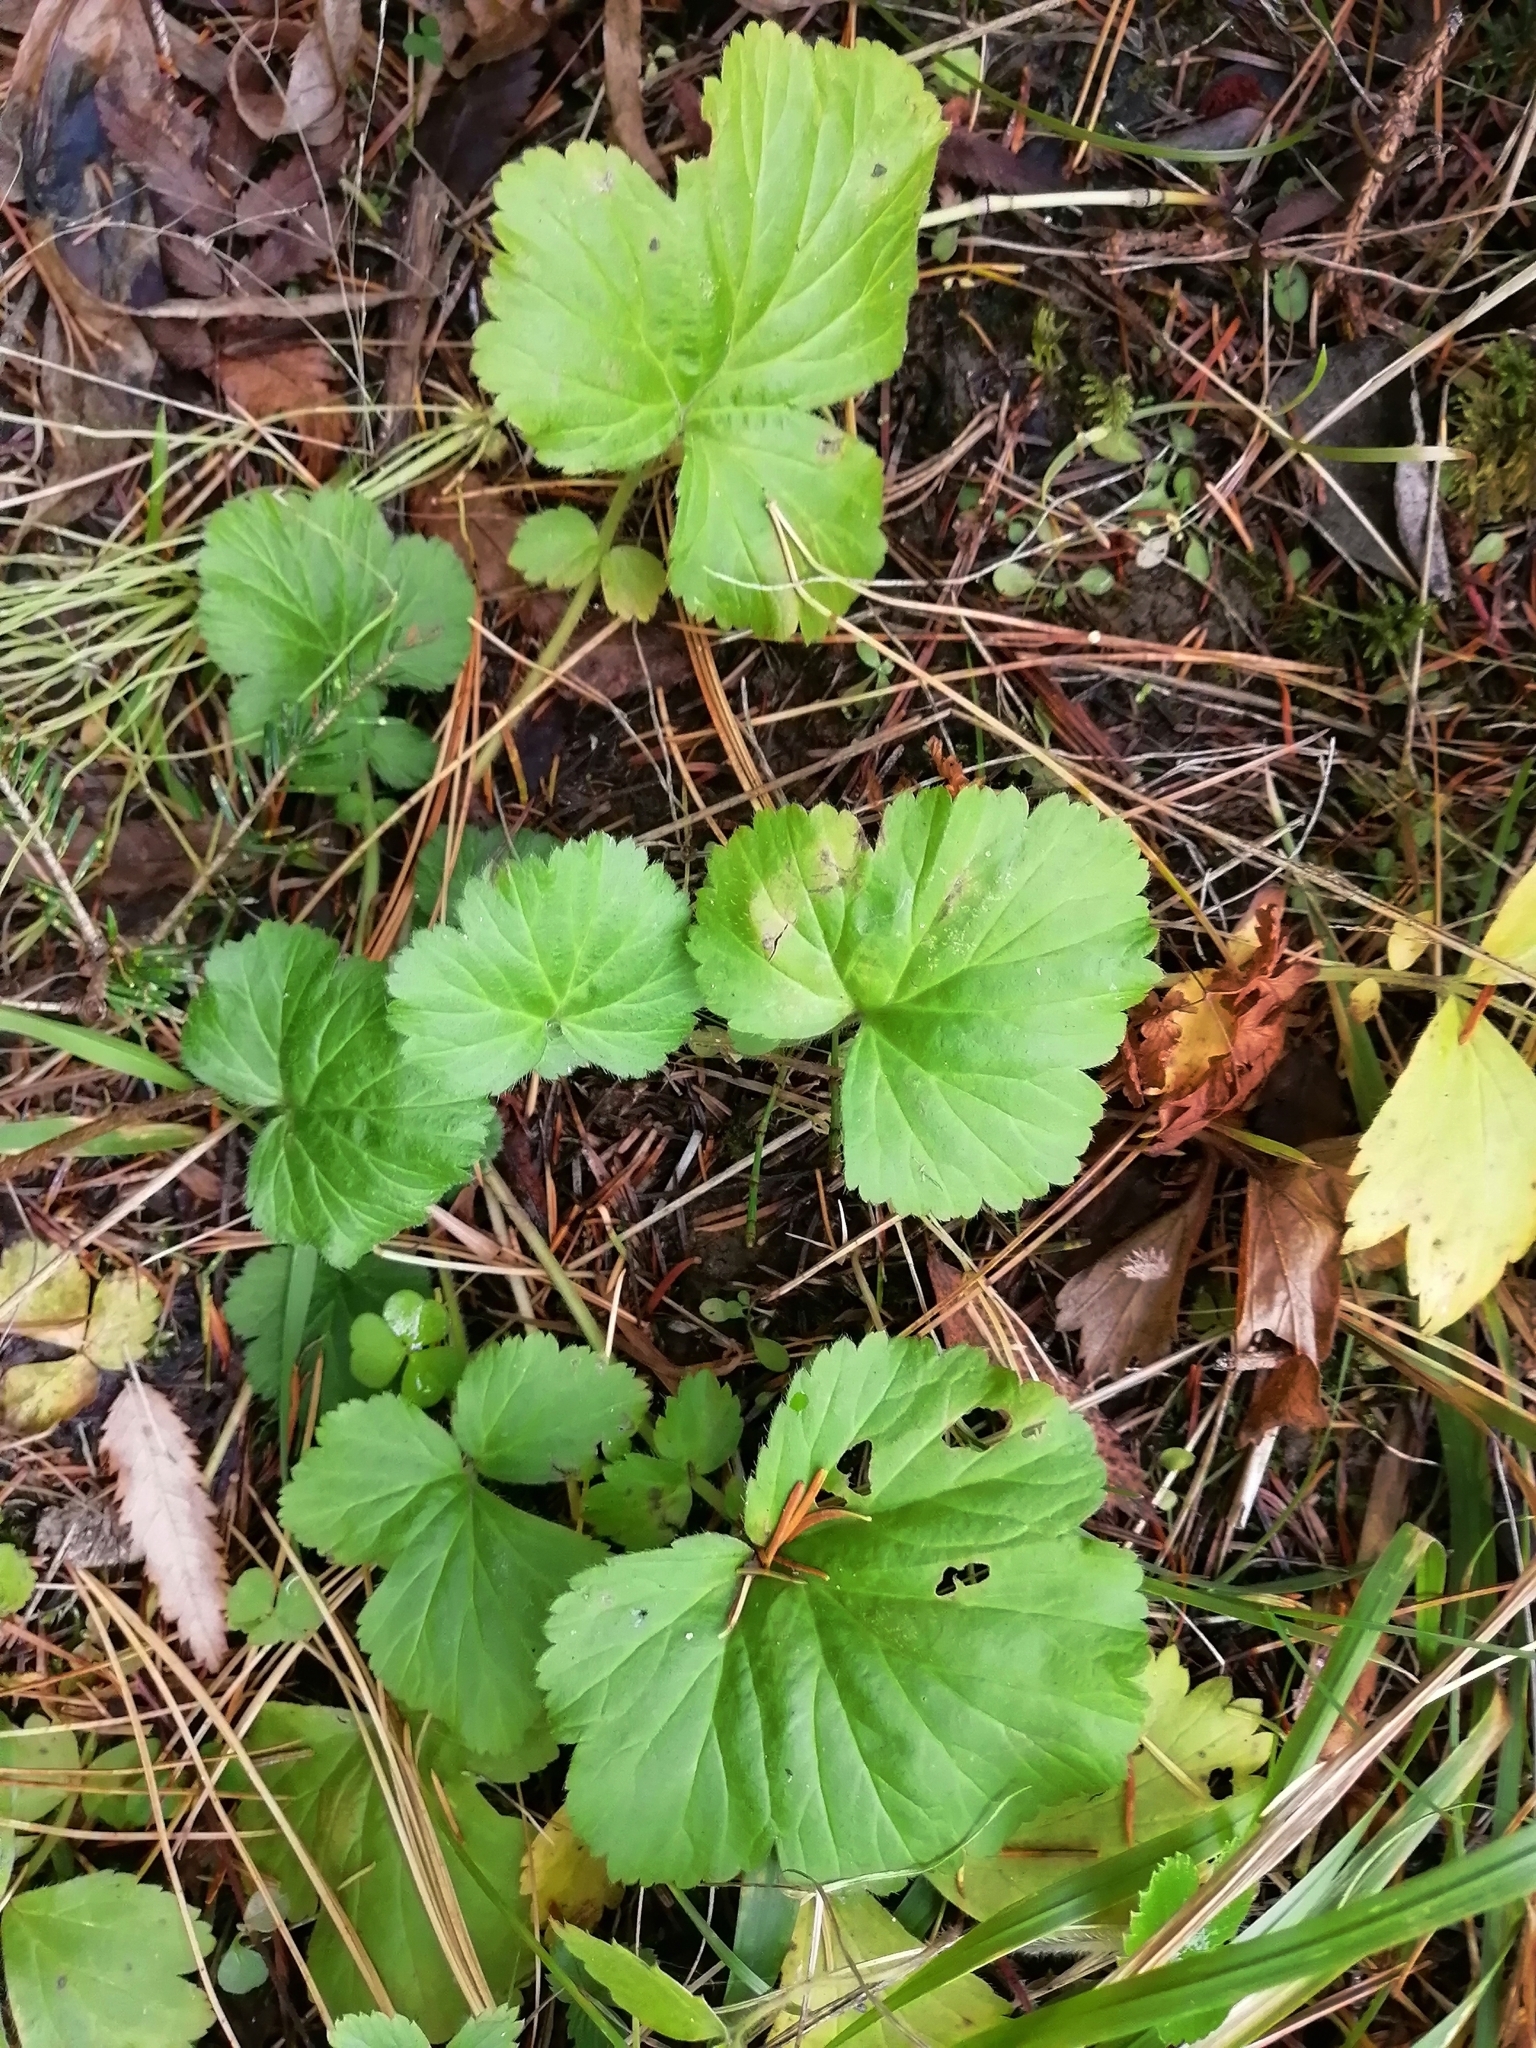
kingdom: Plantae
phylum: Tracheophyta
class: Magnoliopsida
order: Rosales
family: Rosaceae
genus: Geum
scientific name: Geum aleppicum
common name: Yellow avens
